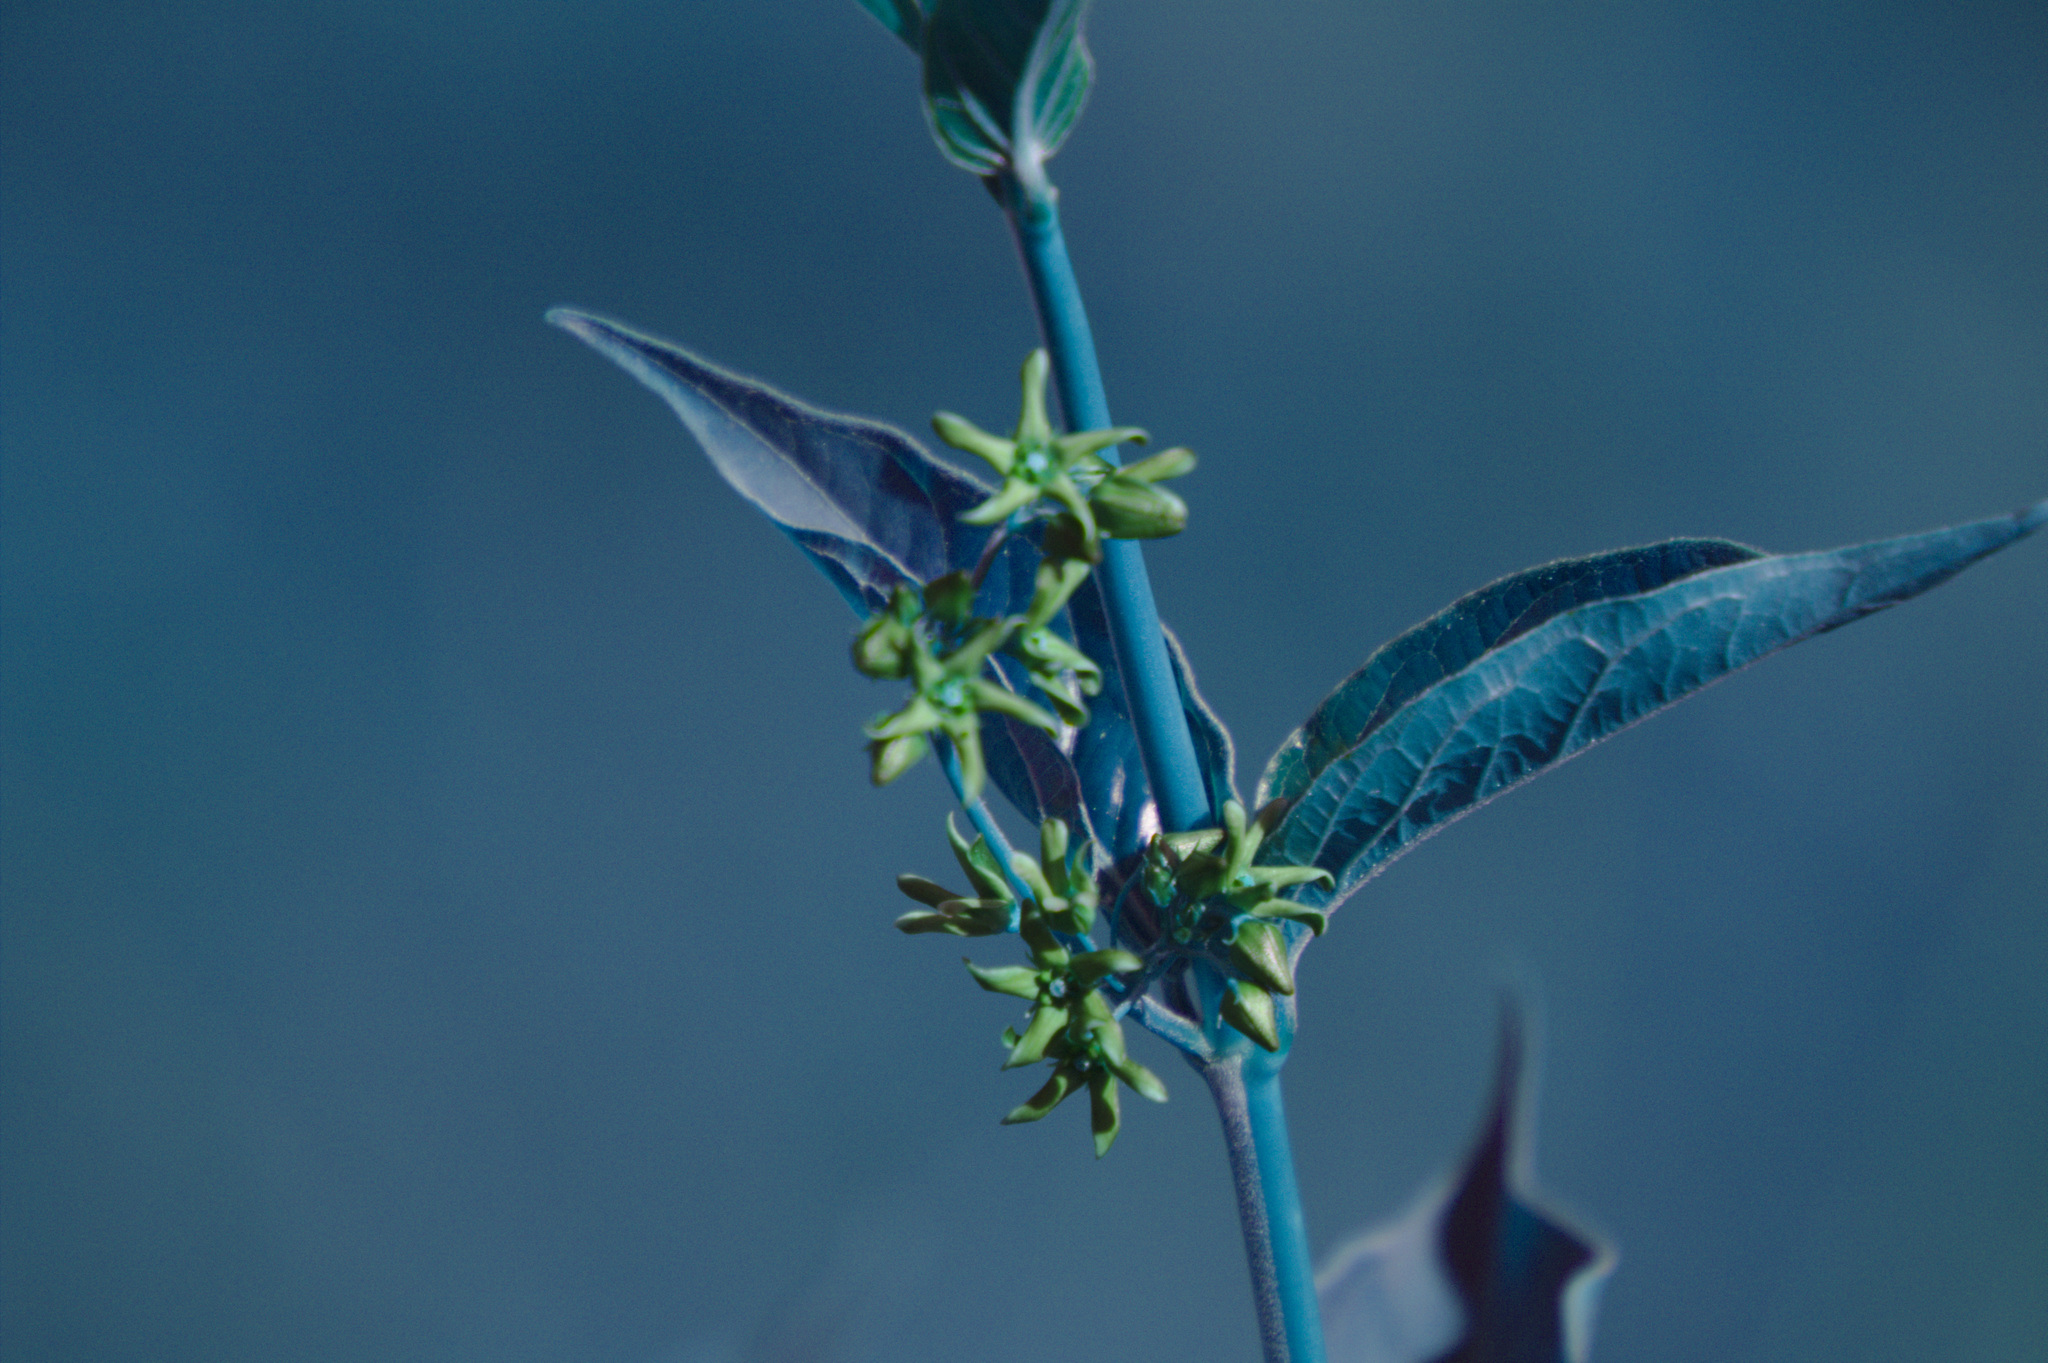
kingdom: Plantae
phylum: Tracheophyta
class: Magnoliopsida
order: Gentianales
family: Apocynaceae
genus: Vincetoxicum
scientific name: Vincetoxicum rossicum
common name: Dog-strangling vine
